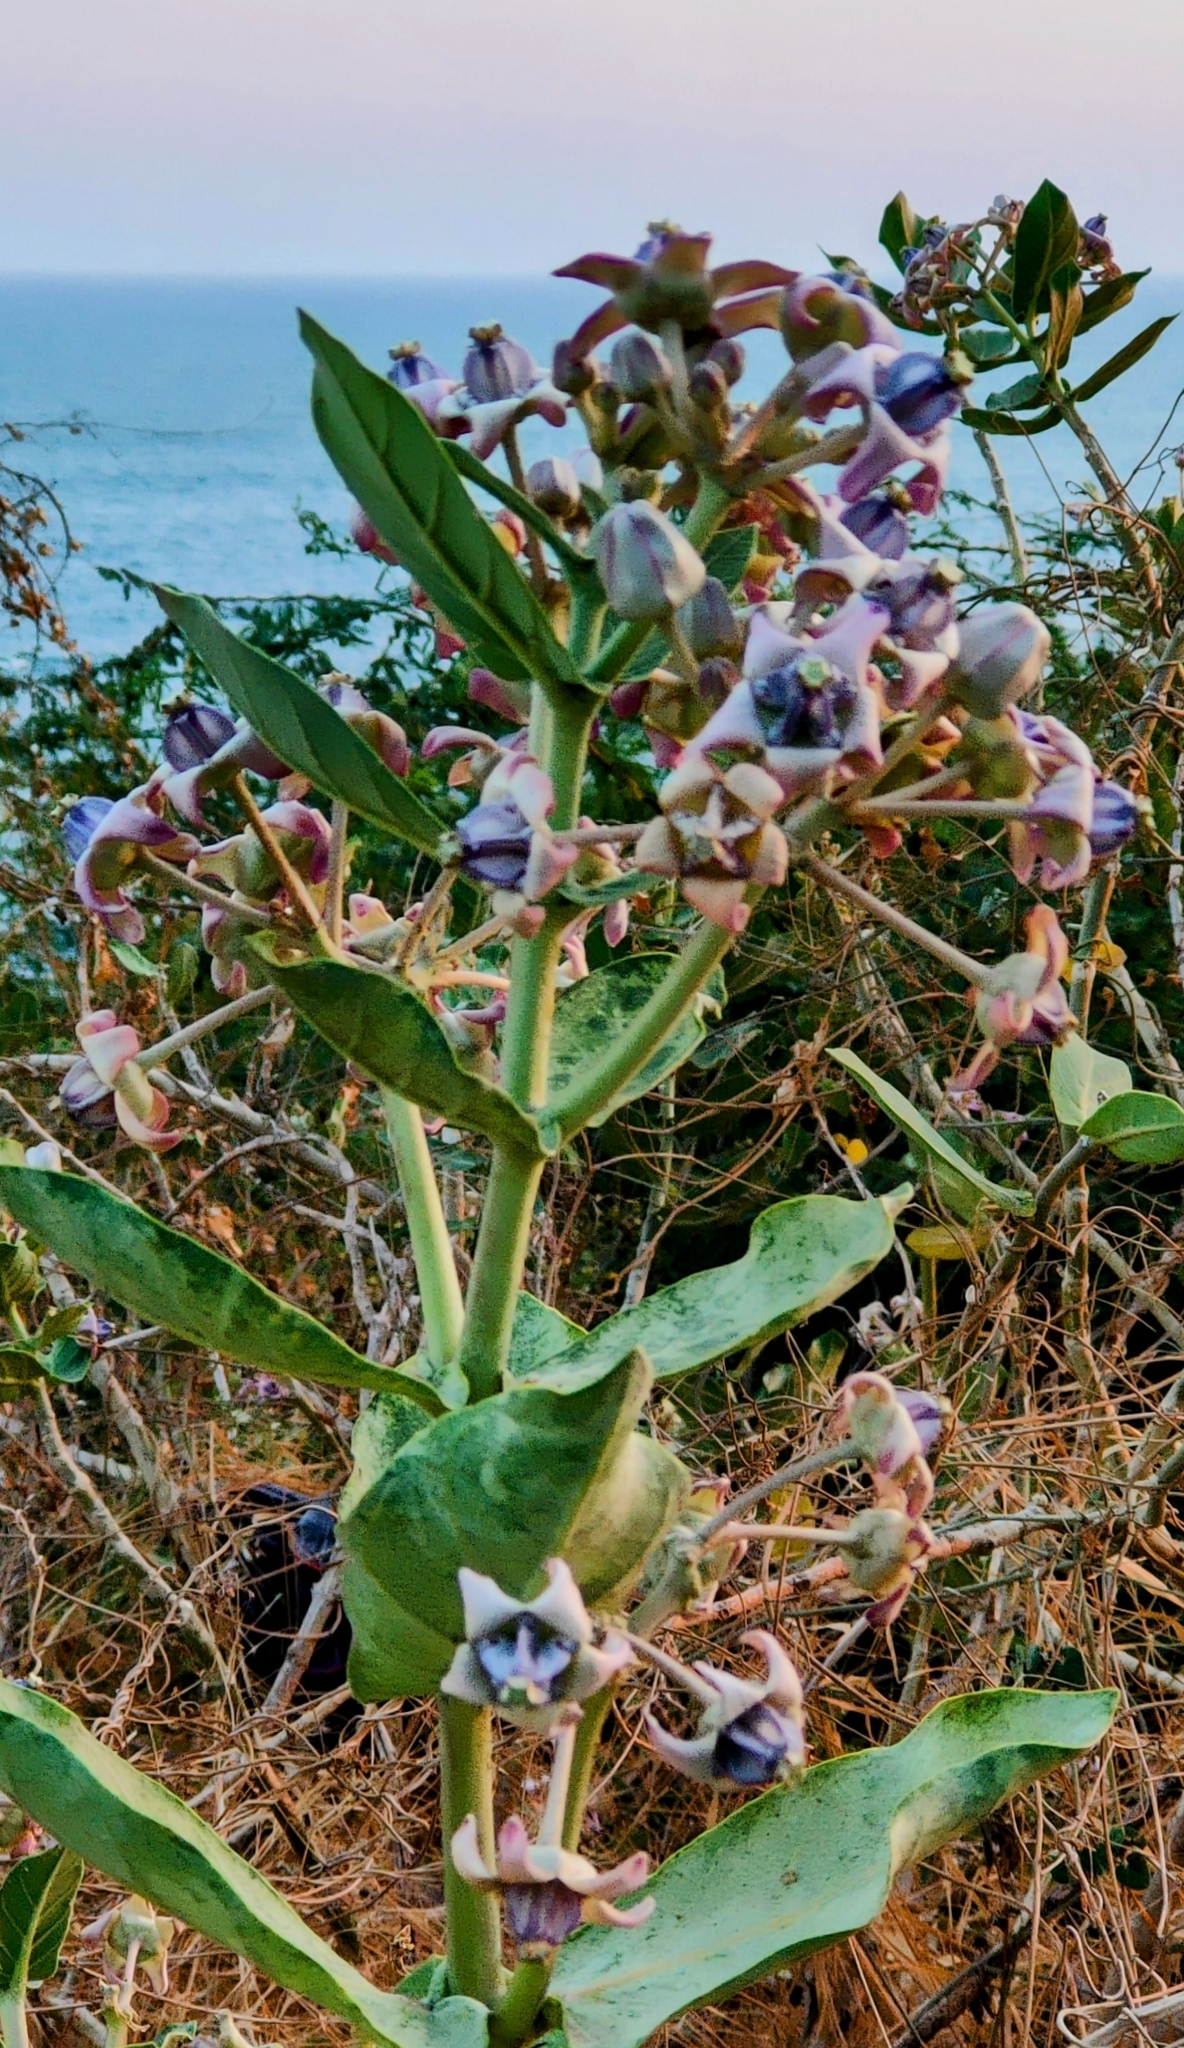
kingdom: Plantae
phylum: Tracheophyta
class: Magnoliopsida
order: Gentianales
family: Apocynaceae
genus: Calotropis
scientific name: Calotropis gigantea
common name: Crown flower
